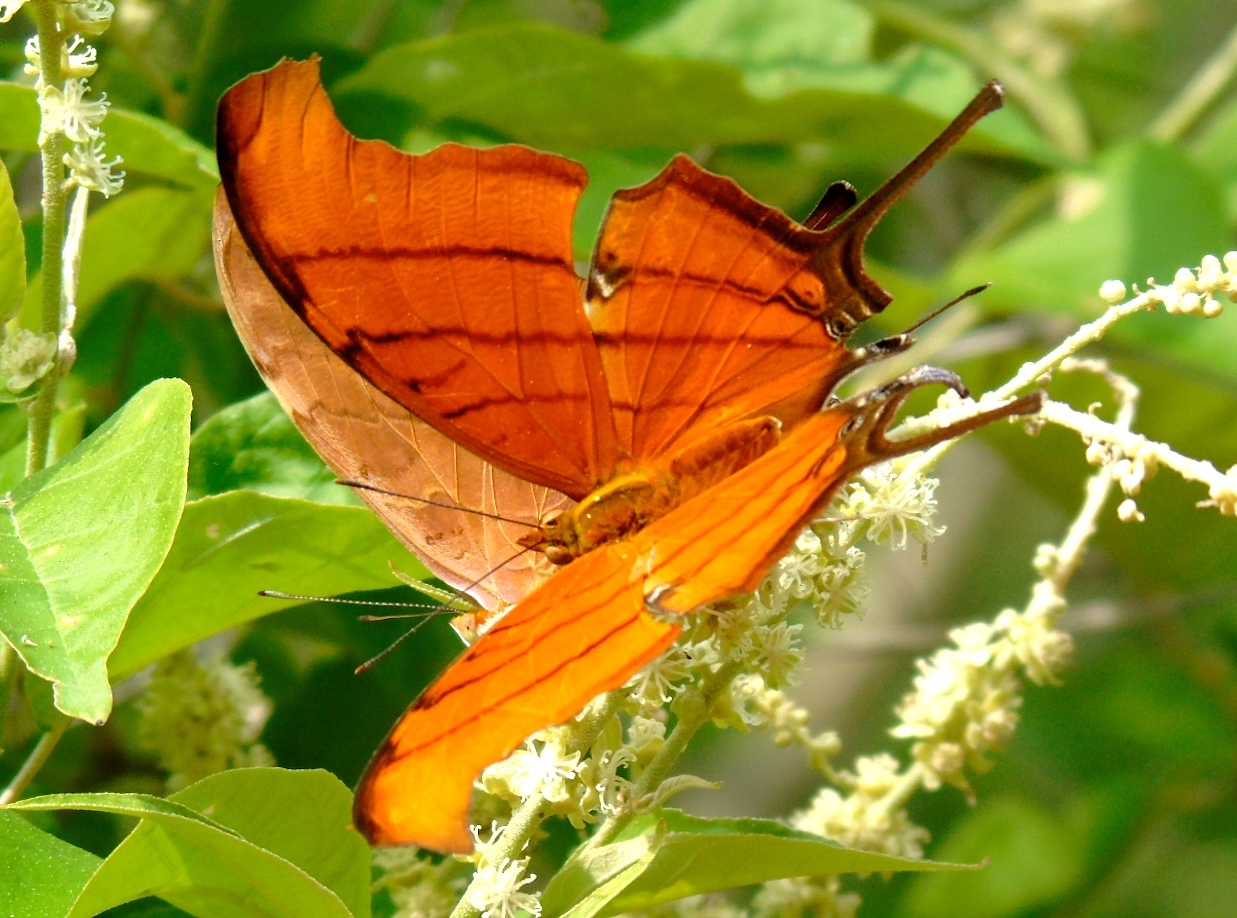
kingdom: Animalia
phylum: Arthropoda
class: Insecta
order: Lepidoptera
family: Nymphalidae
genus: Marpesia
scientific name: Marpesia petreus
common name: Red dagger wing
